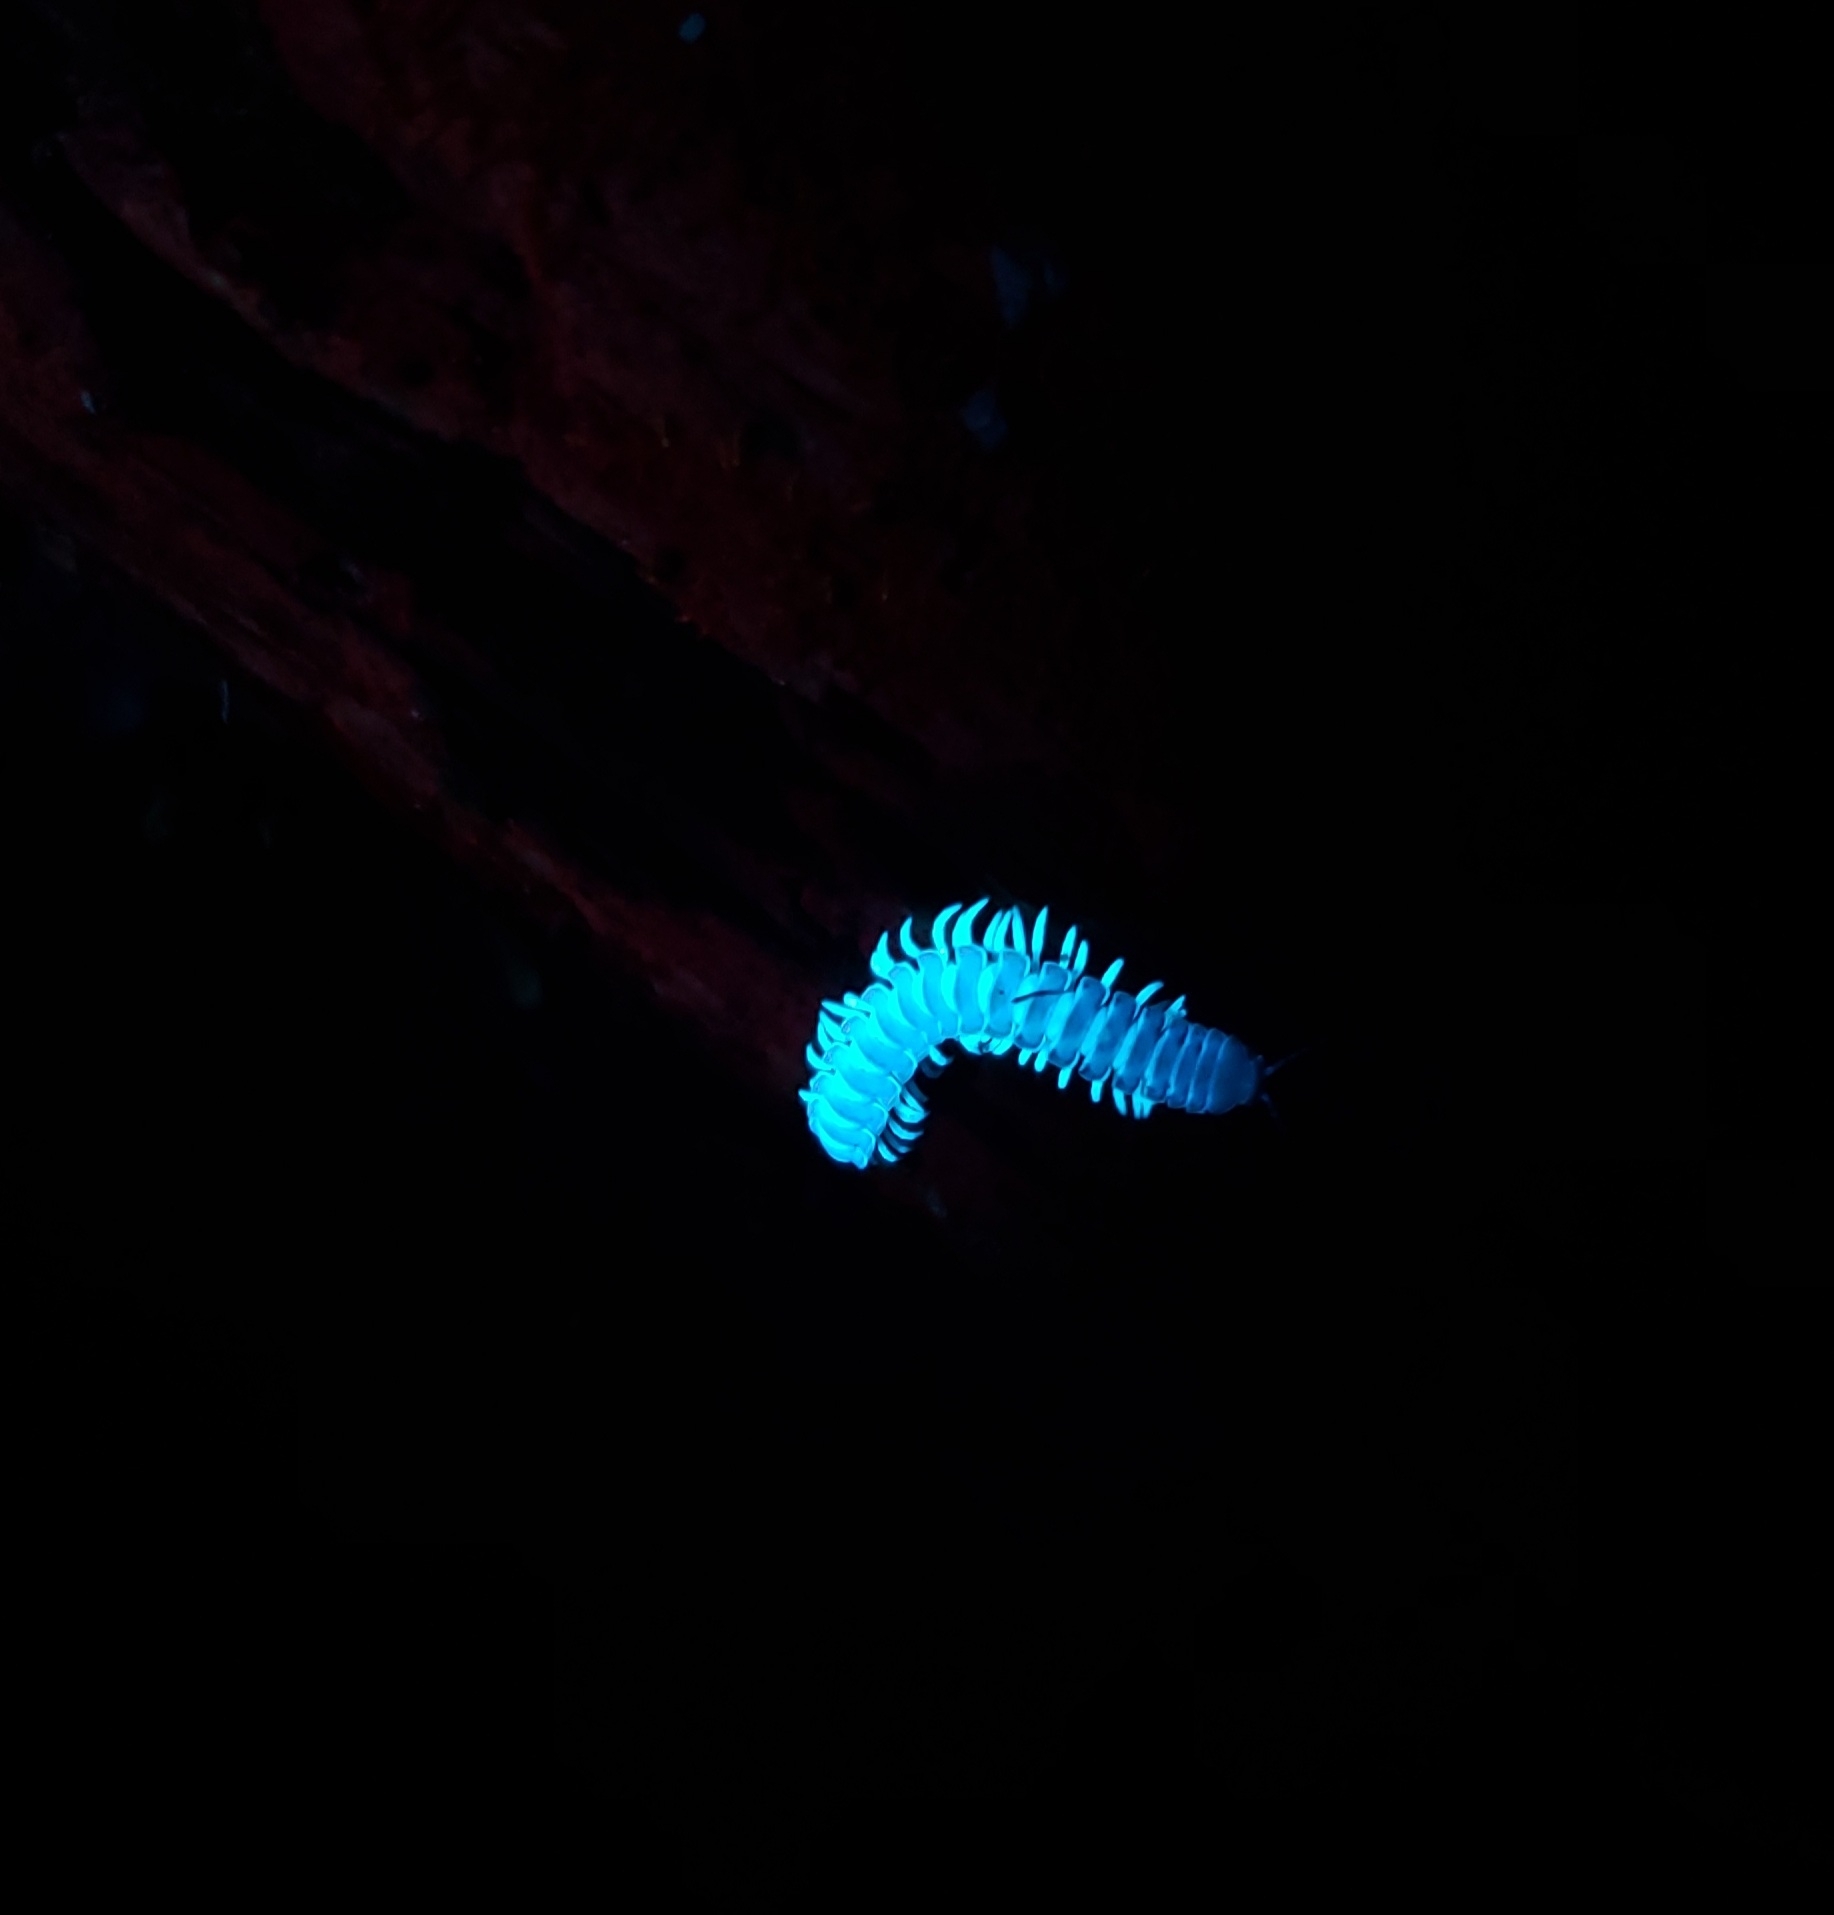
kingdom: Animalia
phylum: Arthropoda
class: Diplopoda
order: Polydesmida
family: Xystodesmidae
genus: Euryurus
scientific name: Euryurus leachii
